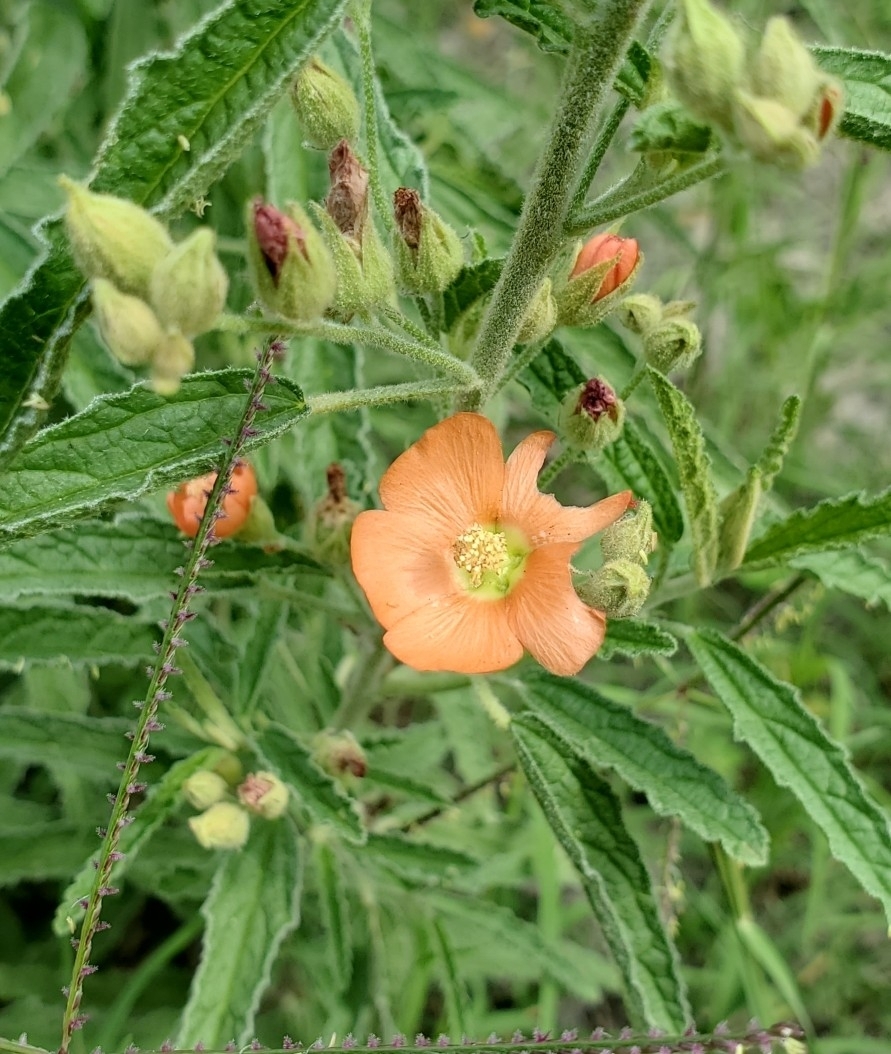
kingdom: Plantae
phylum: Tracheophyta
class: Magnoliopsida
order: Malvales
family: Malvaceae
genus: Sphaeralcea
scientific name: Sphaeralcea angustifolia
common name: Copper globe-mallow
